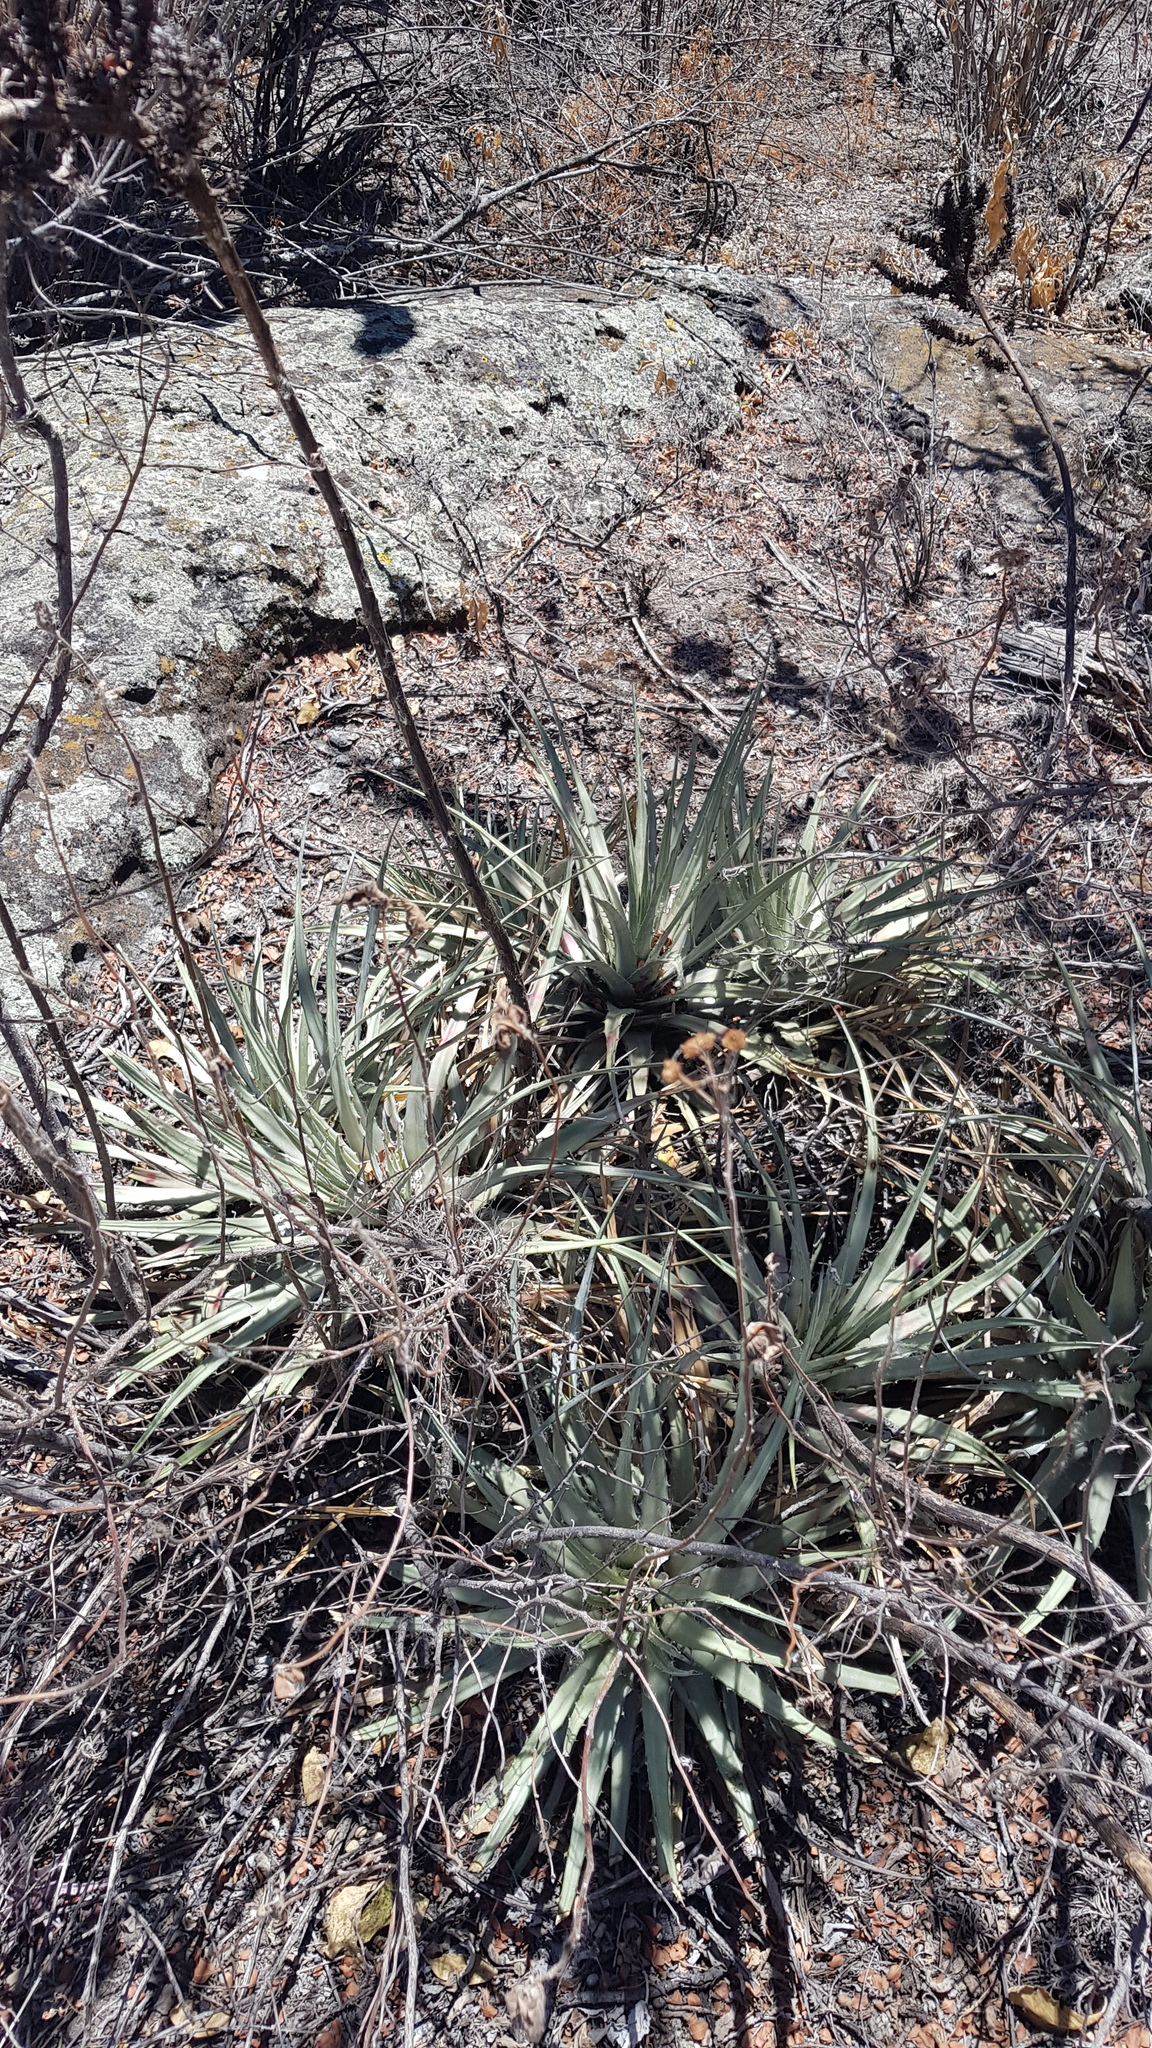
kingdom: Plantae
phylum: Tracheophyta
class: Liliopsida
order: Poales
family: Bromeliaceae
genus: Hechtia
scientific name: Hechtia pringlei
